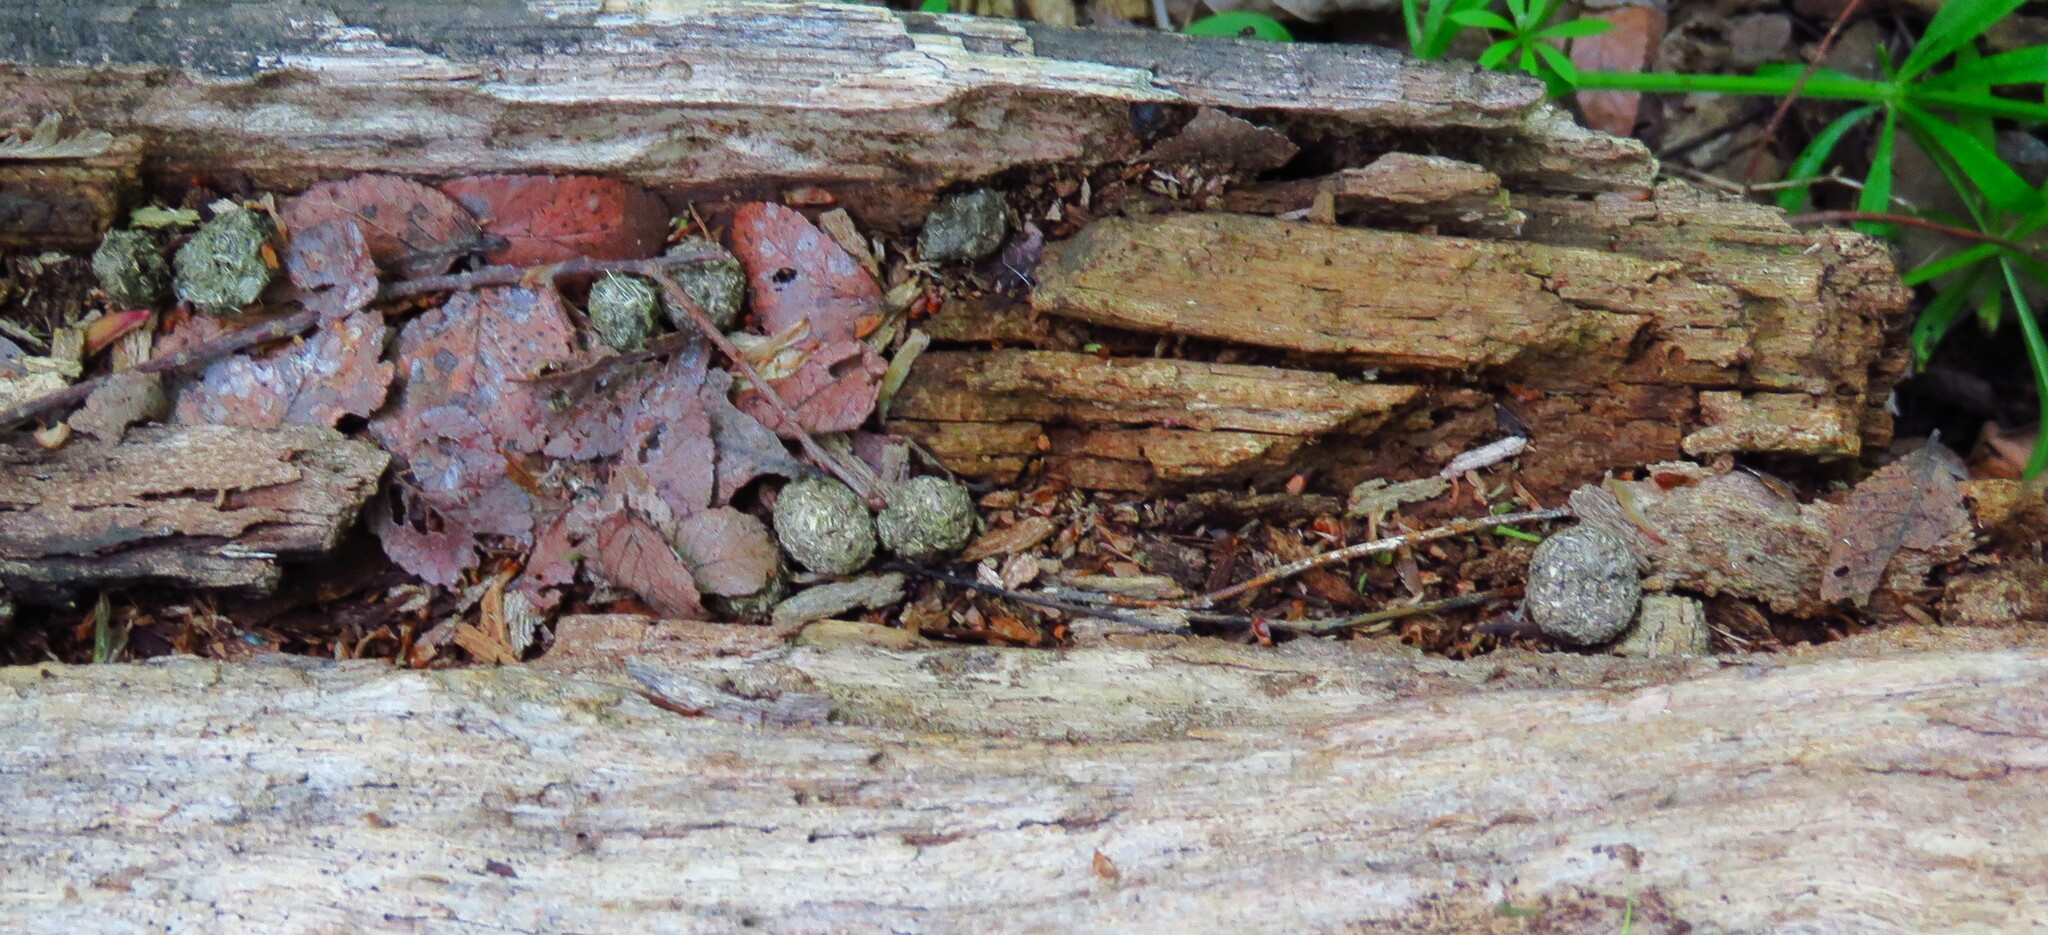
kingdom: Animalia
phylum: Chordata
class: Mammalia
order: Lagomorpha
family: Leporidae
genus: Sylvilagus
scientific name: Sylvilagus aquaticus
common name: Swamp rabbit
